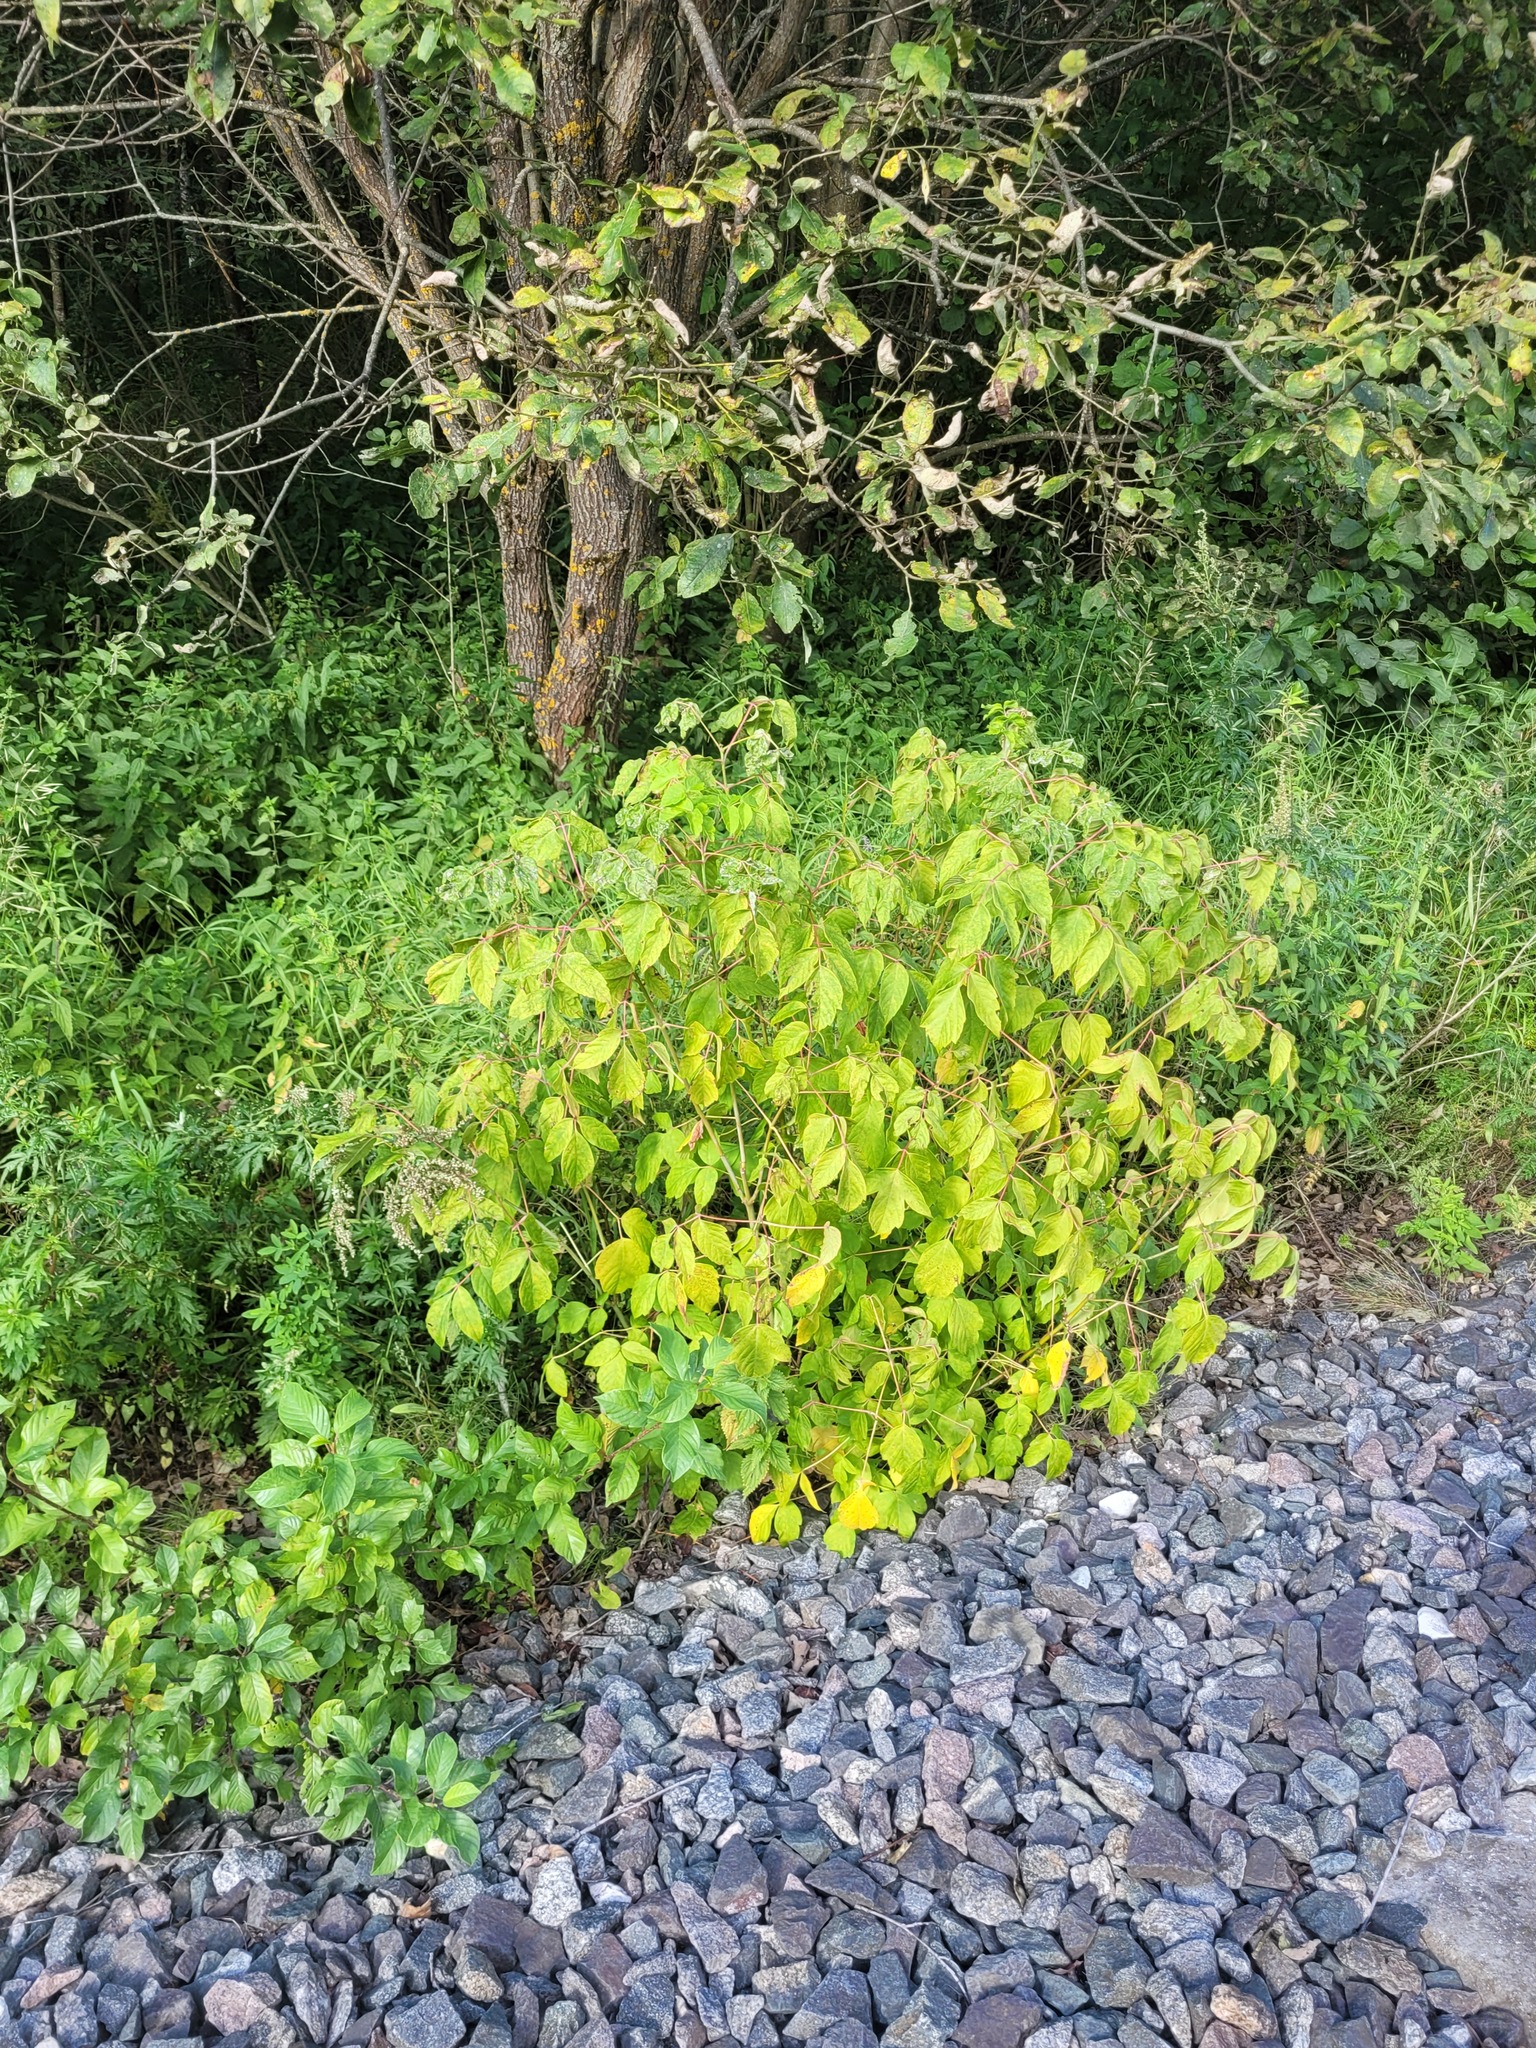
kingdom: Plantae
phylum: Tracheophyta
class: Magnoliopsida
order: Sapindales
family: Sapindaceae
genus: Acer
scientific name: Acer negundo
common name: Ashleaf maple
